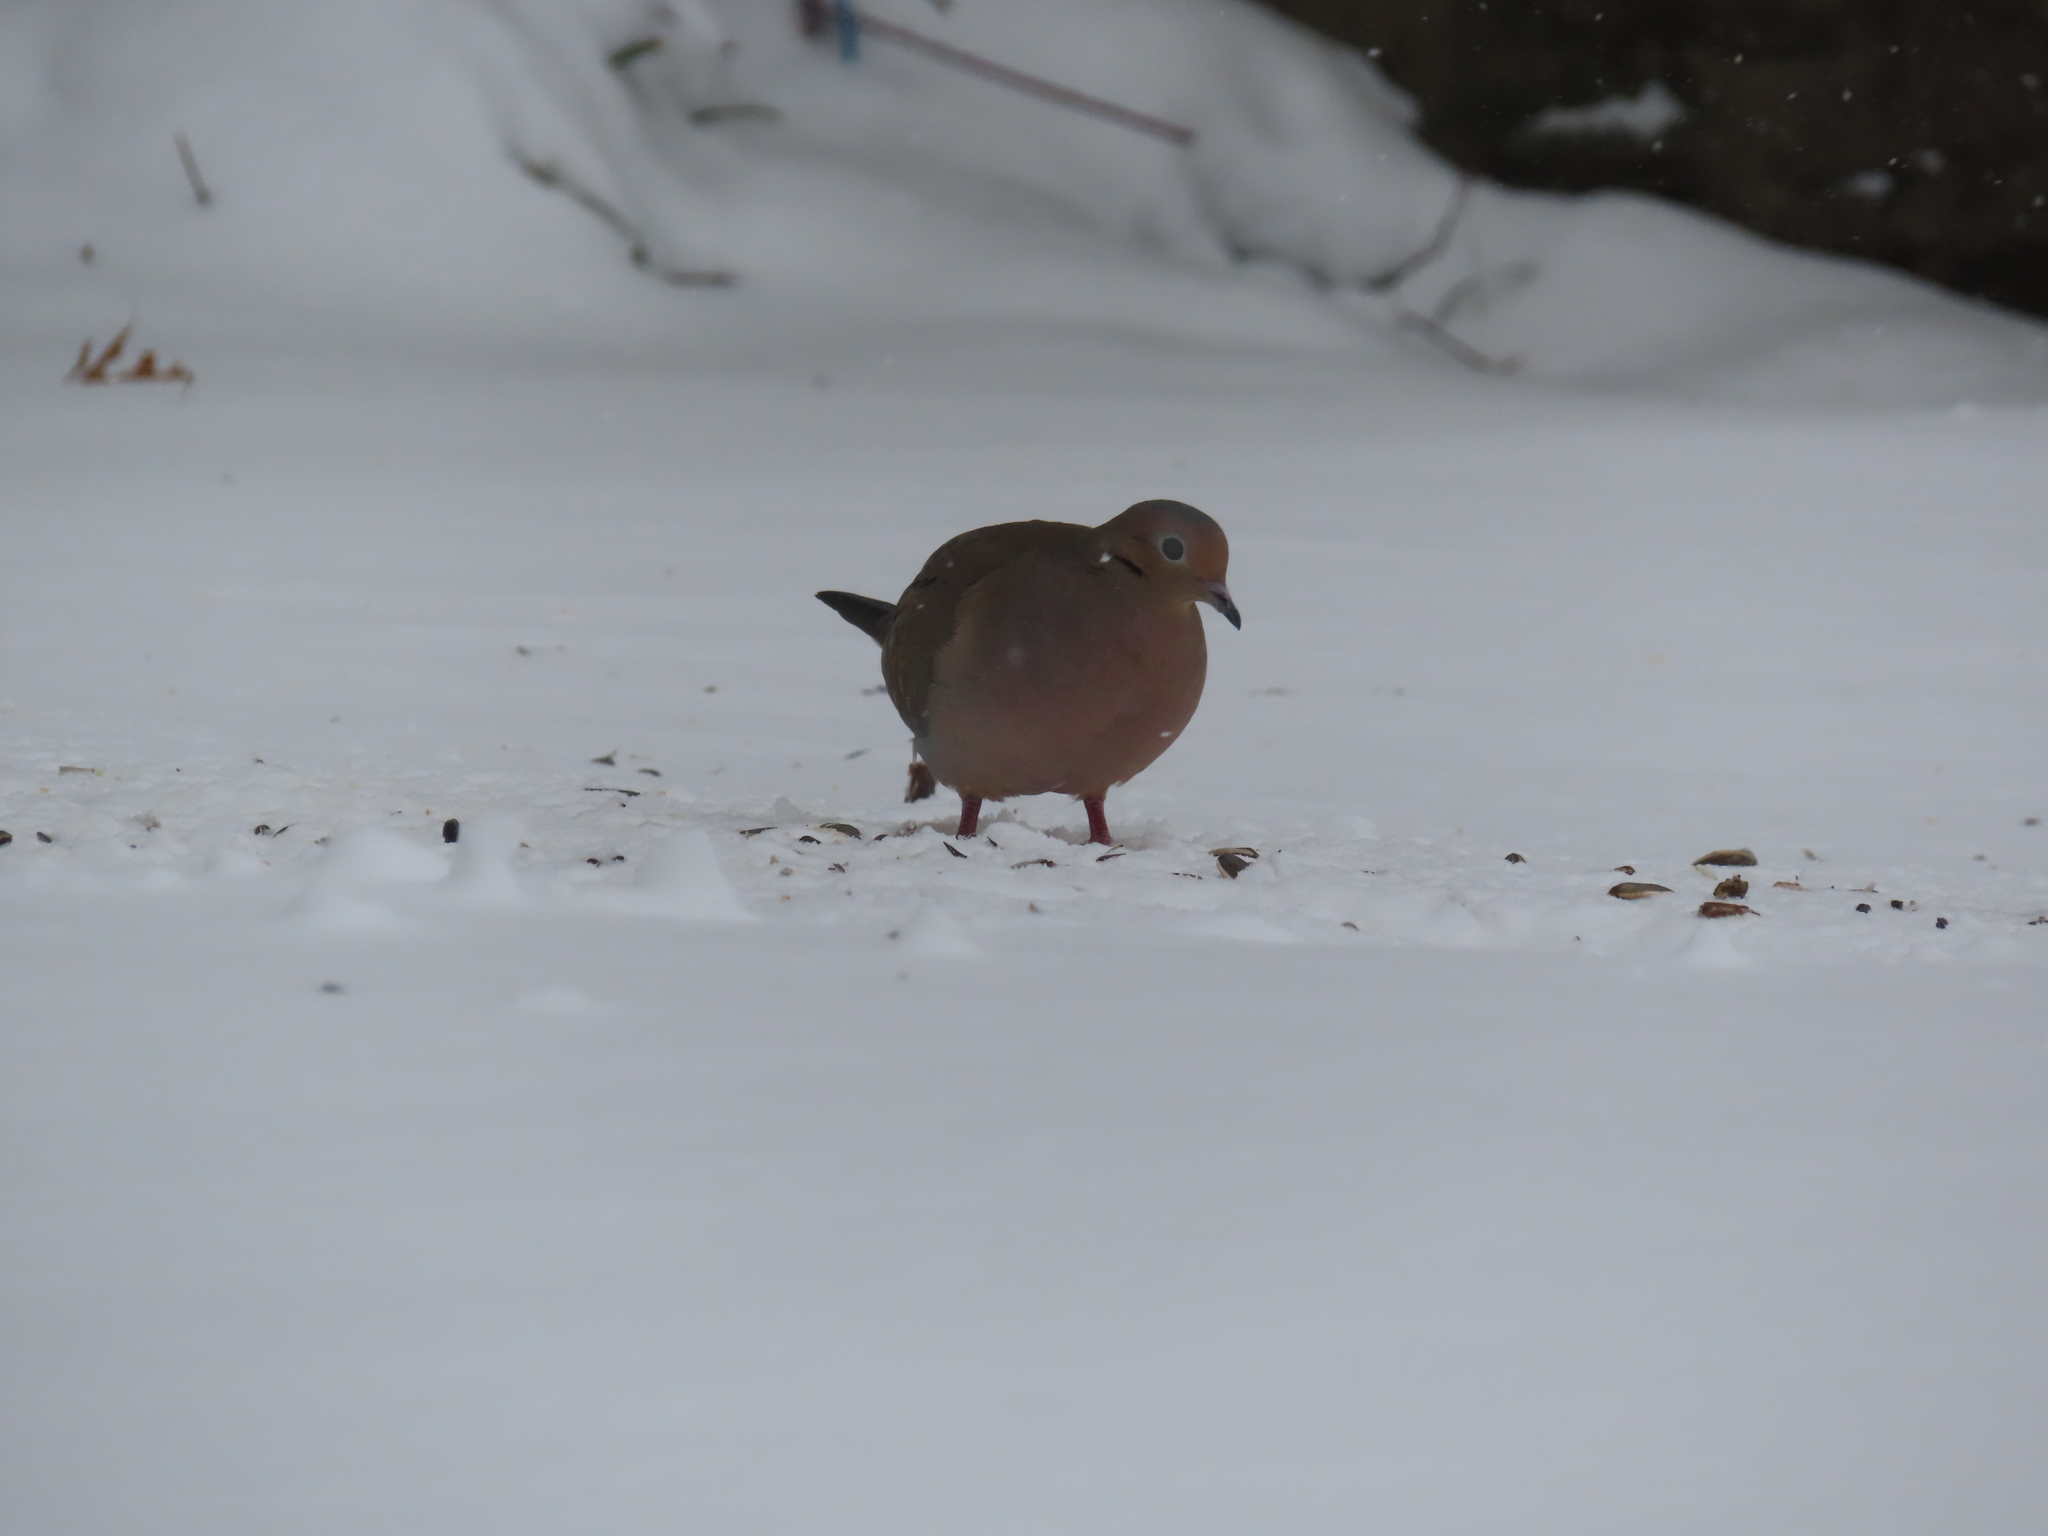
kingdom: Animalia
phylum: Chordata
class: Aves
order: Columbiformes
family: Columbidae
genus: Zenaida
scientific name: Zenaida macroura
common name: Mourning dove
